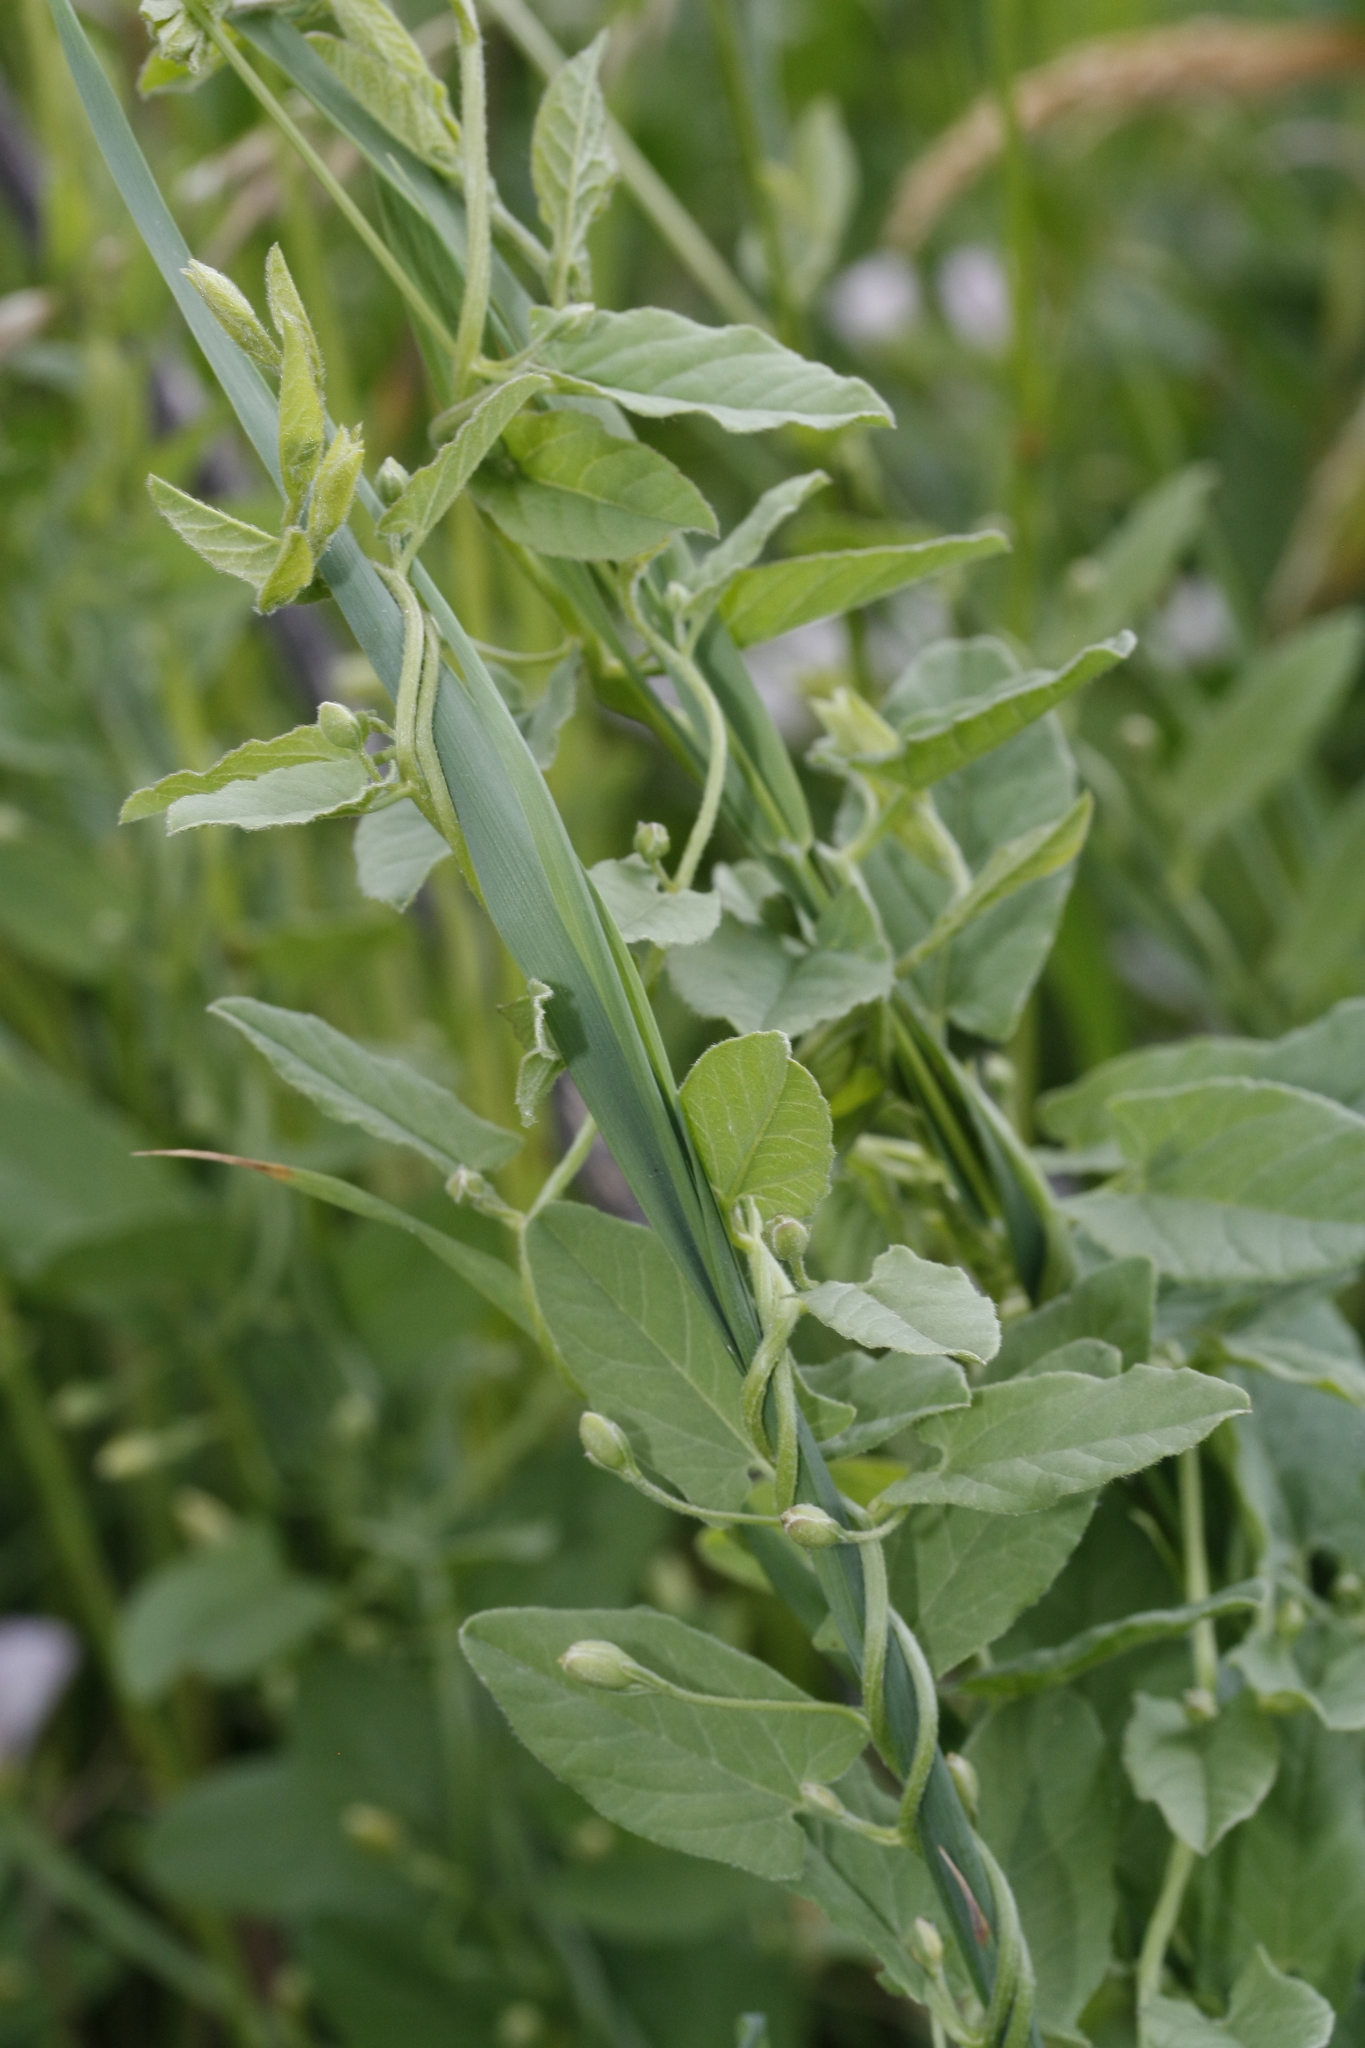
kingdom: Plantae
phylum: Tracheophyta
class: Magnoliopsida
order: Solanales
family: Convolvulaceae
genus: Convolvulus
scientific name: Convolvulus arvensis
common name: Field bindweed
